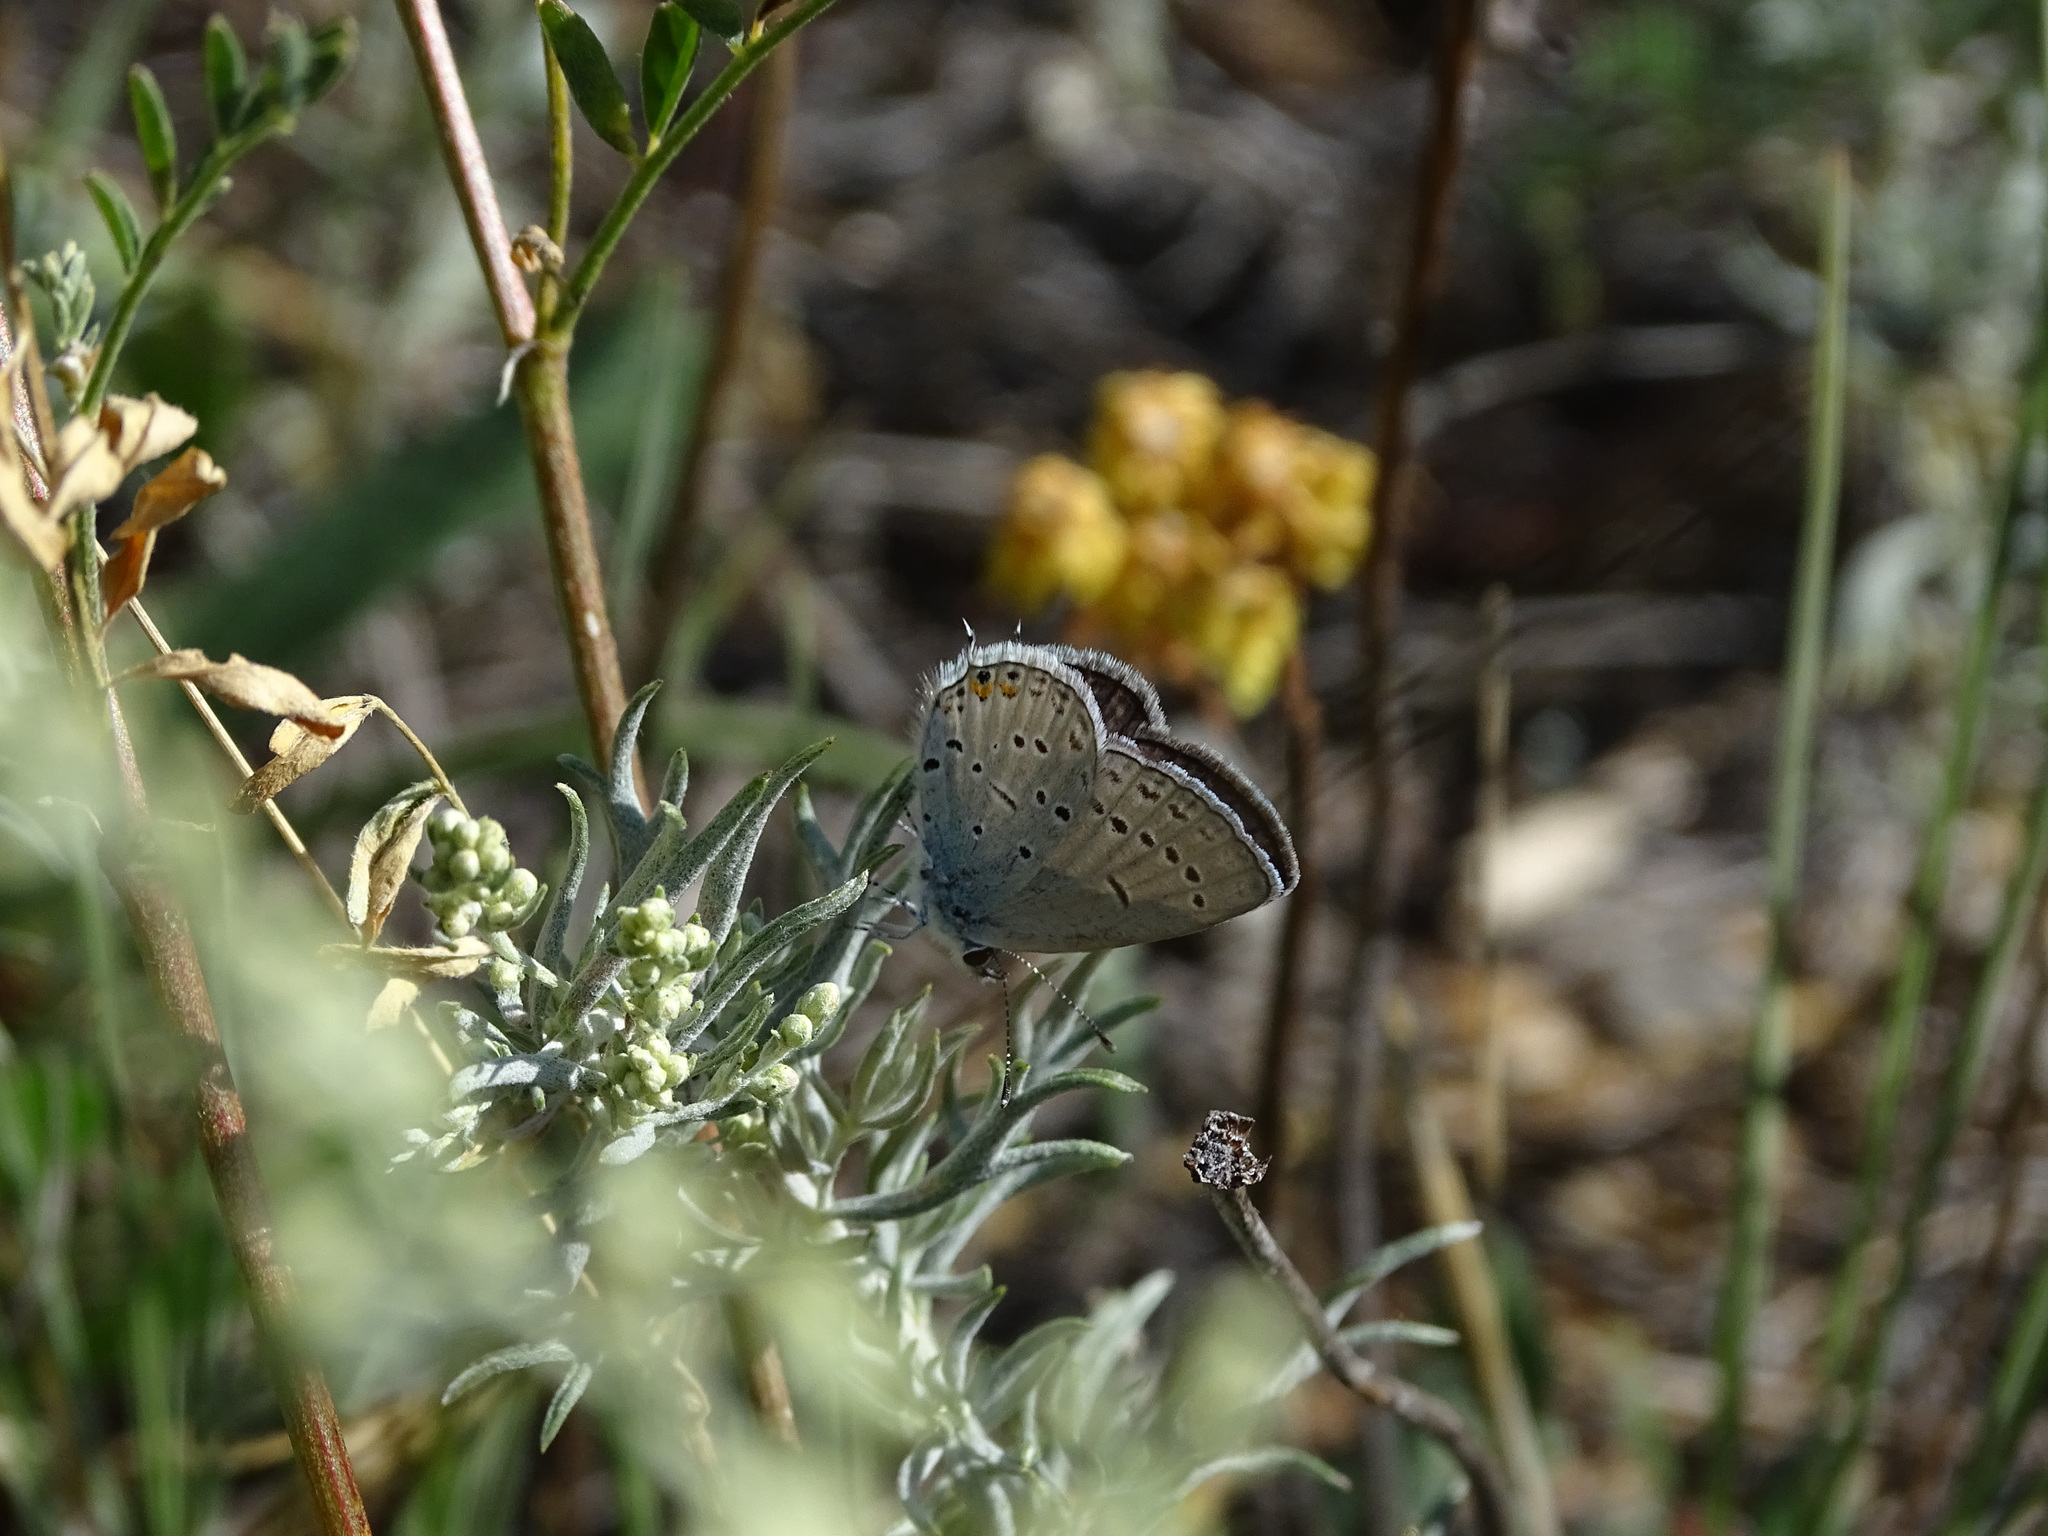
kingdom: Animalia
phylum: Arthropoda
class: Insecta
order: Lepidoptera
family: Lycaenidae
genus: Elkalyce
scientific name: Elkalyce amyntula
